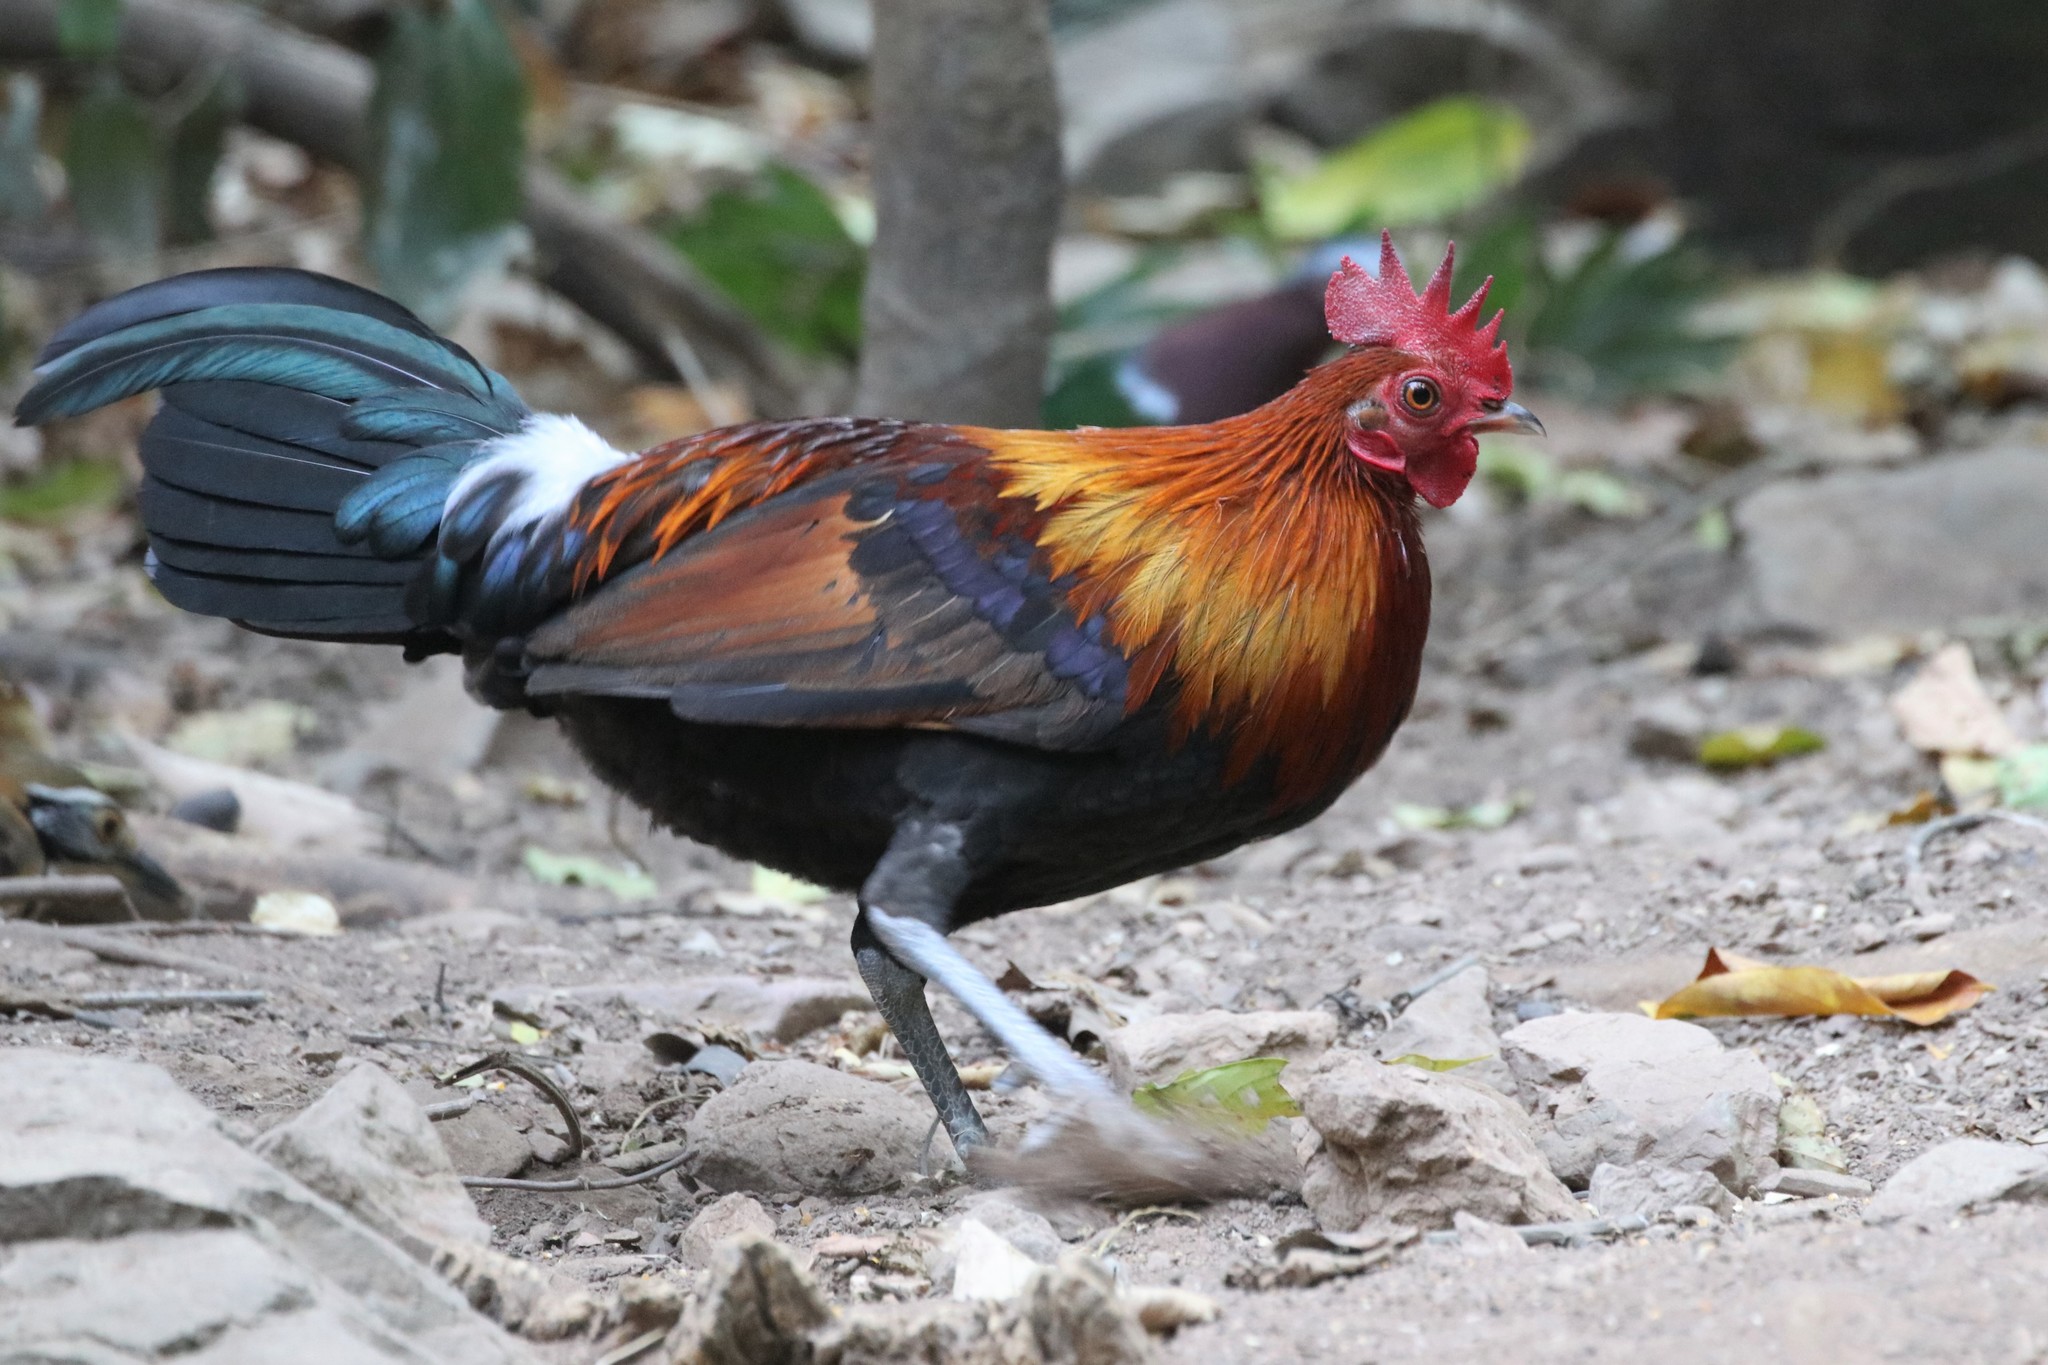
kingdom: Animalia
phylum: Chordata
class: Aves
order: Galliformes
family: Phasianidae
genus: Gallus
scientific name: Gallus gallus
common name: Red junglefowl
